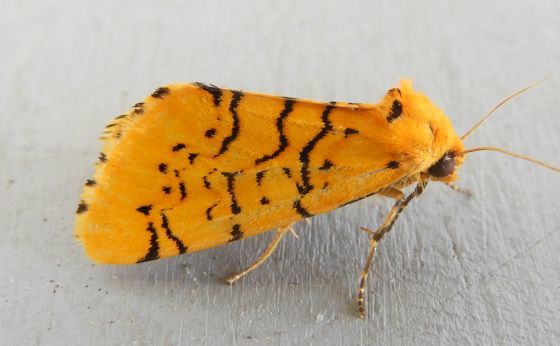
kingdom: Animalia
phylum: Arthropoda
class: Insecta
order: Lepidoptera
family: Noctuidae
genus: Chrysoecia
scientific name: Chrysoecia atrolinea
